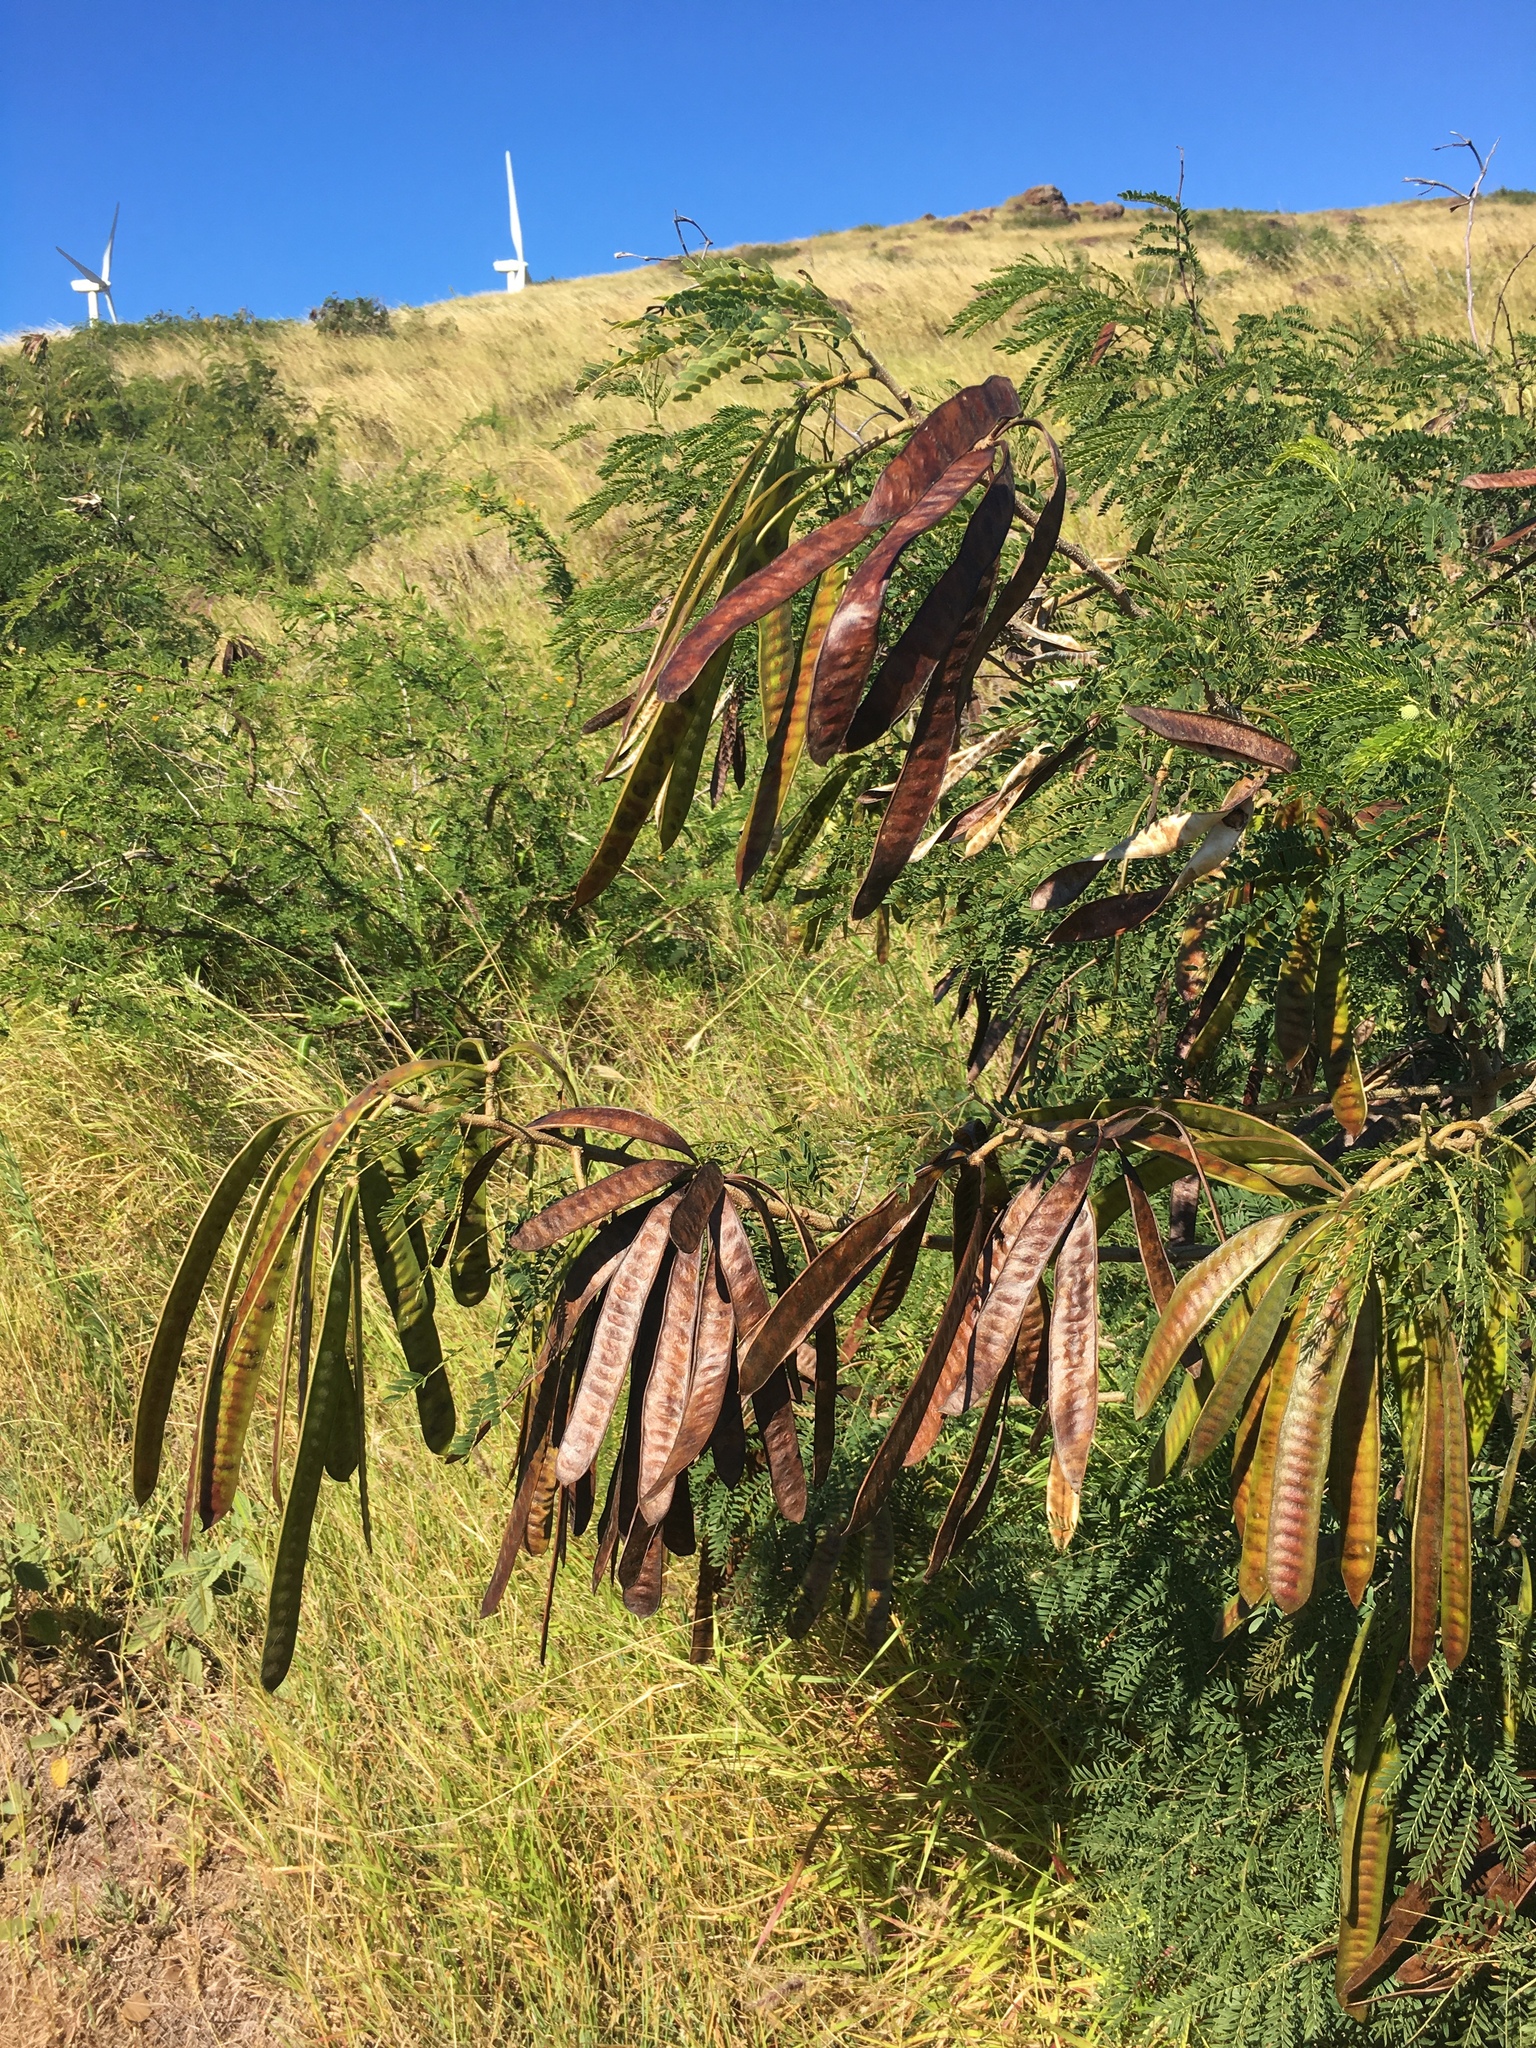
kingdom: Plantae
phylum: Tracheophyta
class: Magnoliopsida
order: Fabales
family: Fabaceae
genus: Leucaena
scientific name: Leucaena leucocephala
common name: White leadtree
